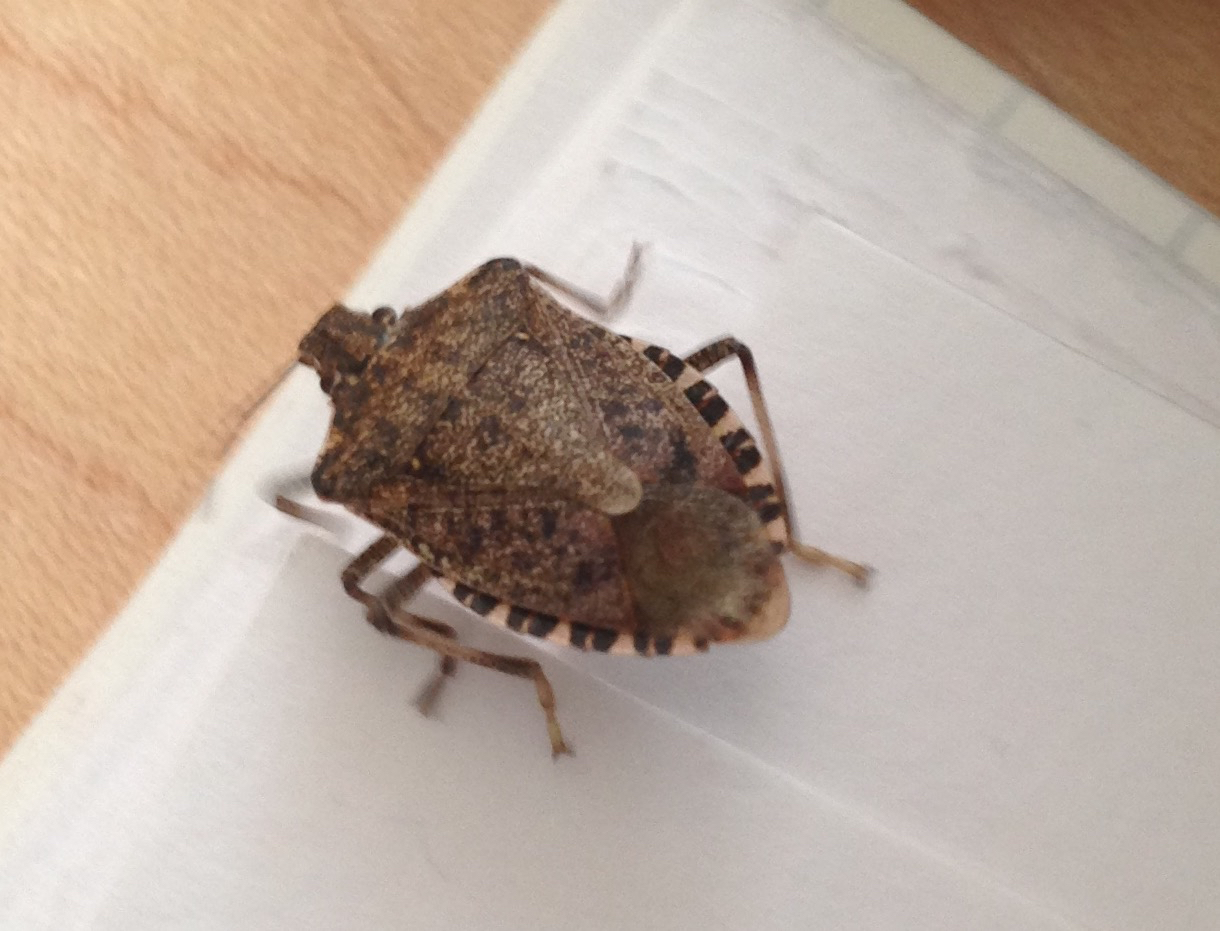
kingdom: Animalia
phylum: Arthropoda
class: Insecta
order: Hemiptera
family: Pentatomidae
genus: Halyomorpha
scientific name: Halyomorpha halys
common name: Brown marmorated stink bug
